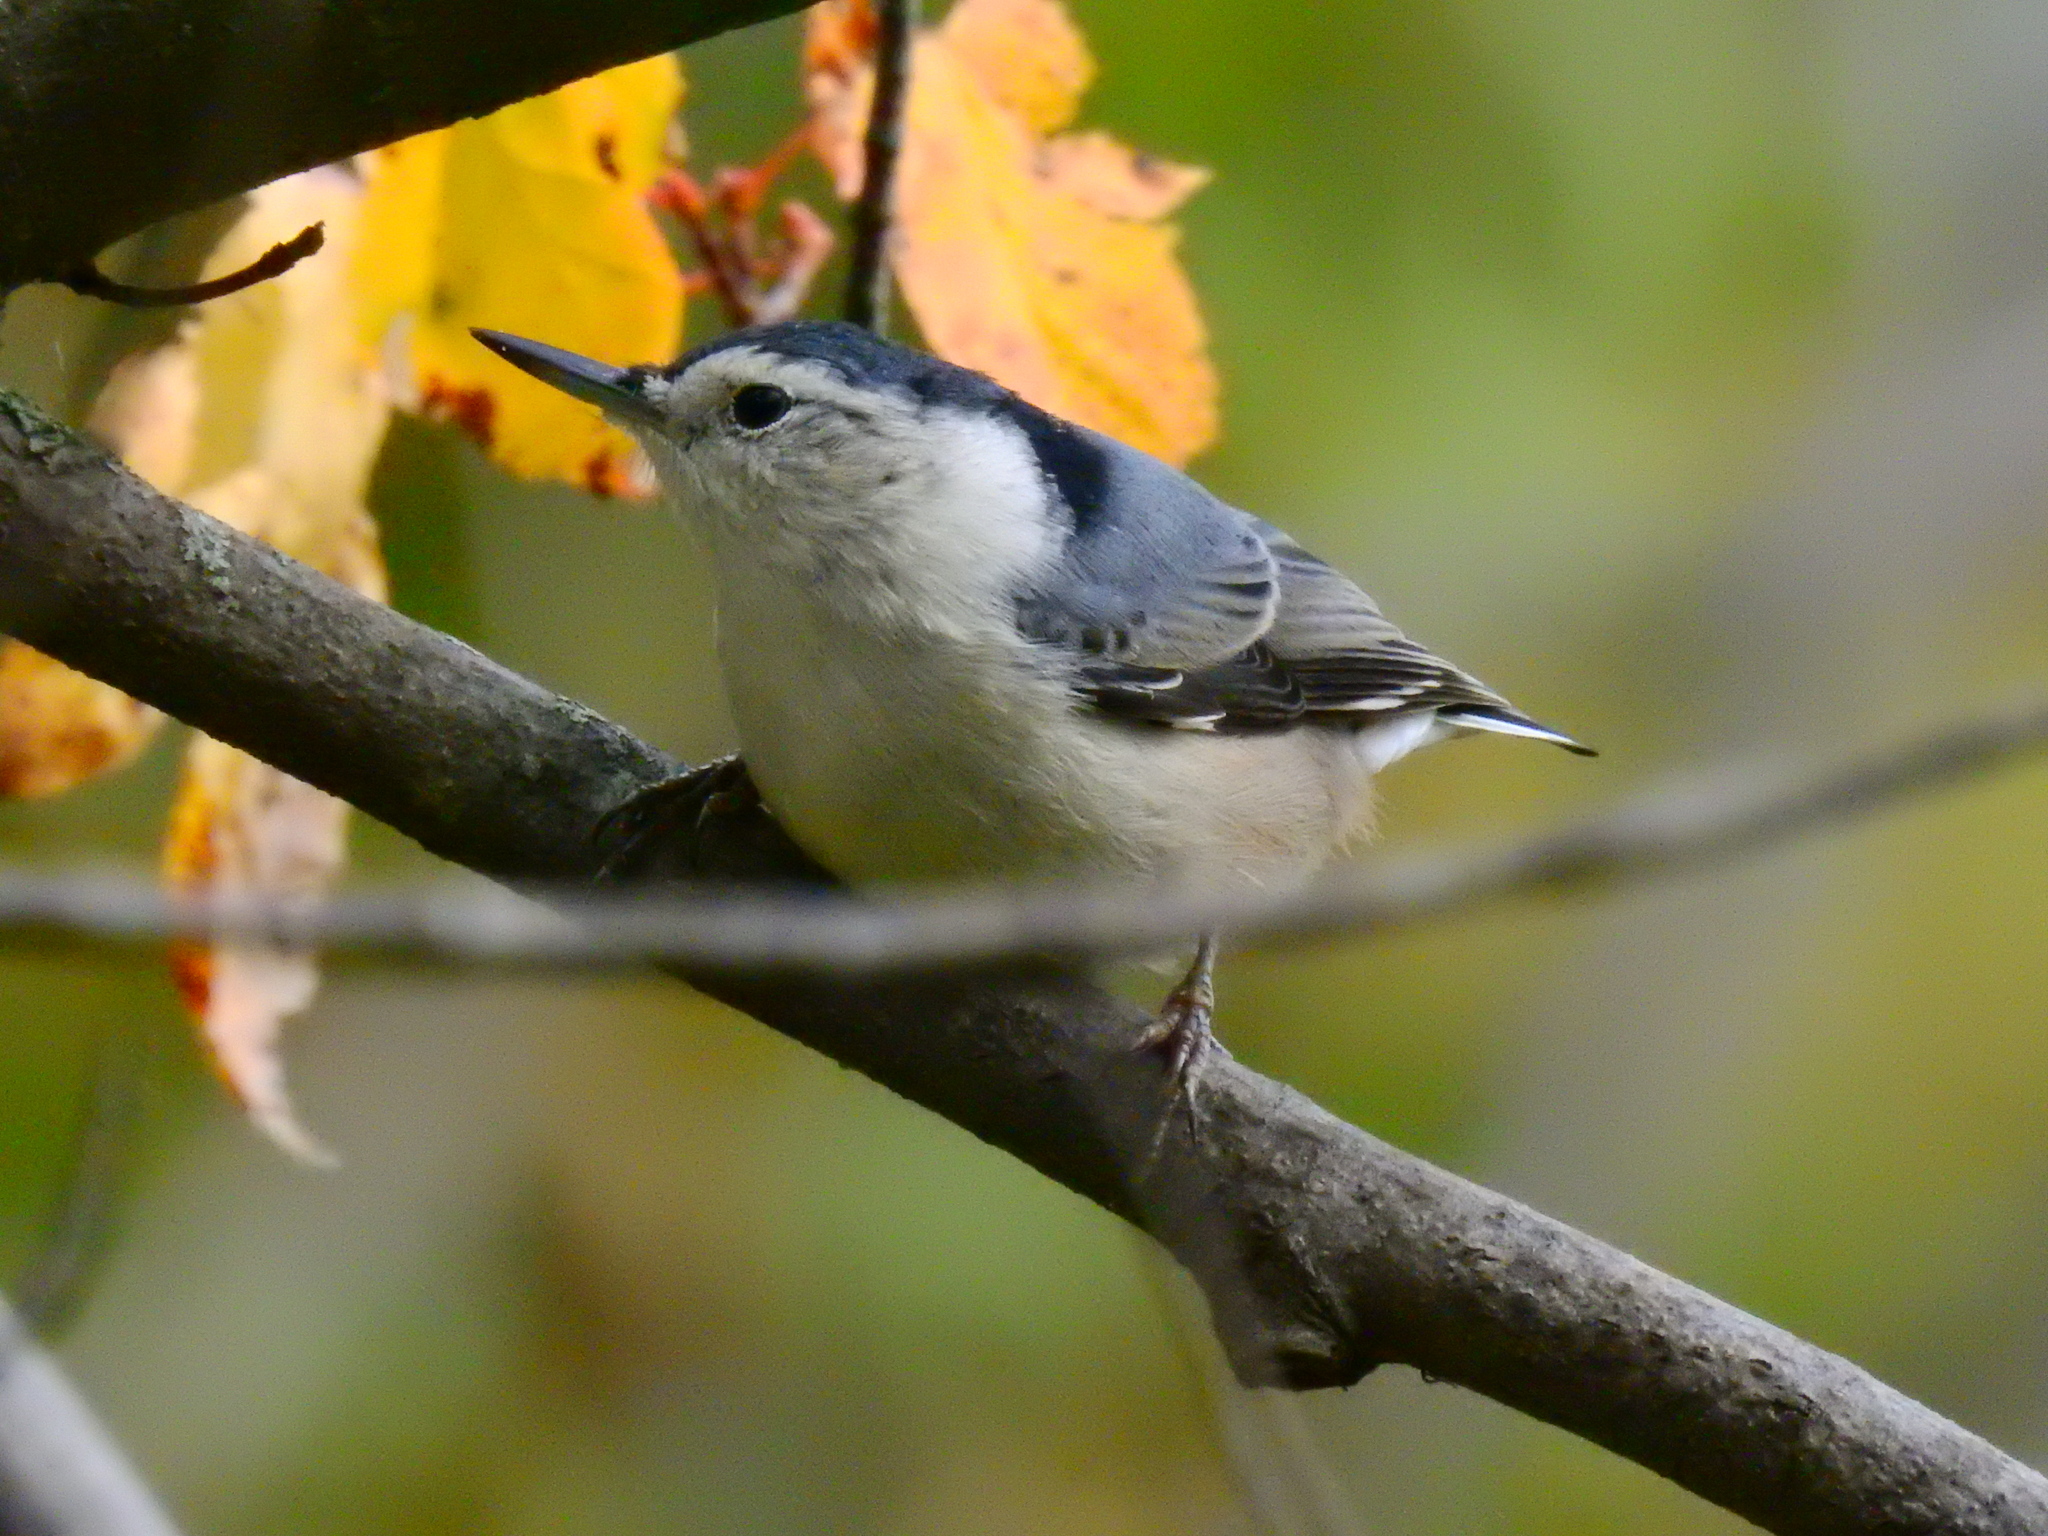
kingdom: Animalia
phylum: Chordata
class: Aves
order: Passeriformes
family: Sittidae
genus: Sitta
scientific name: Sitta carolinensis
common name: White-breasted nuthatch
